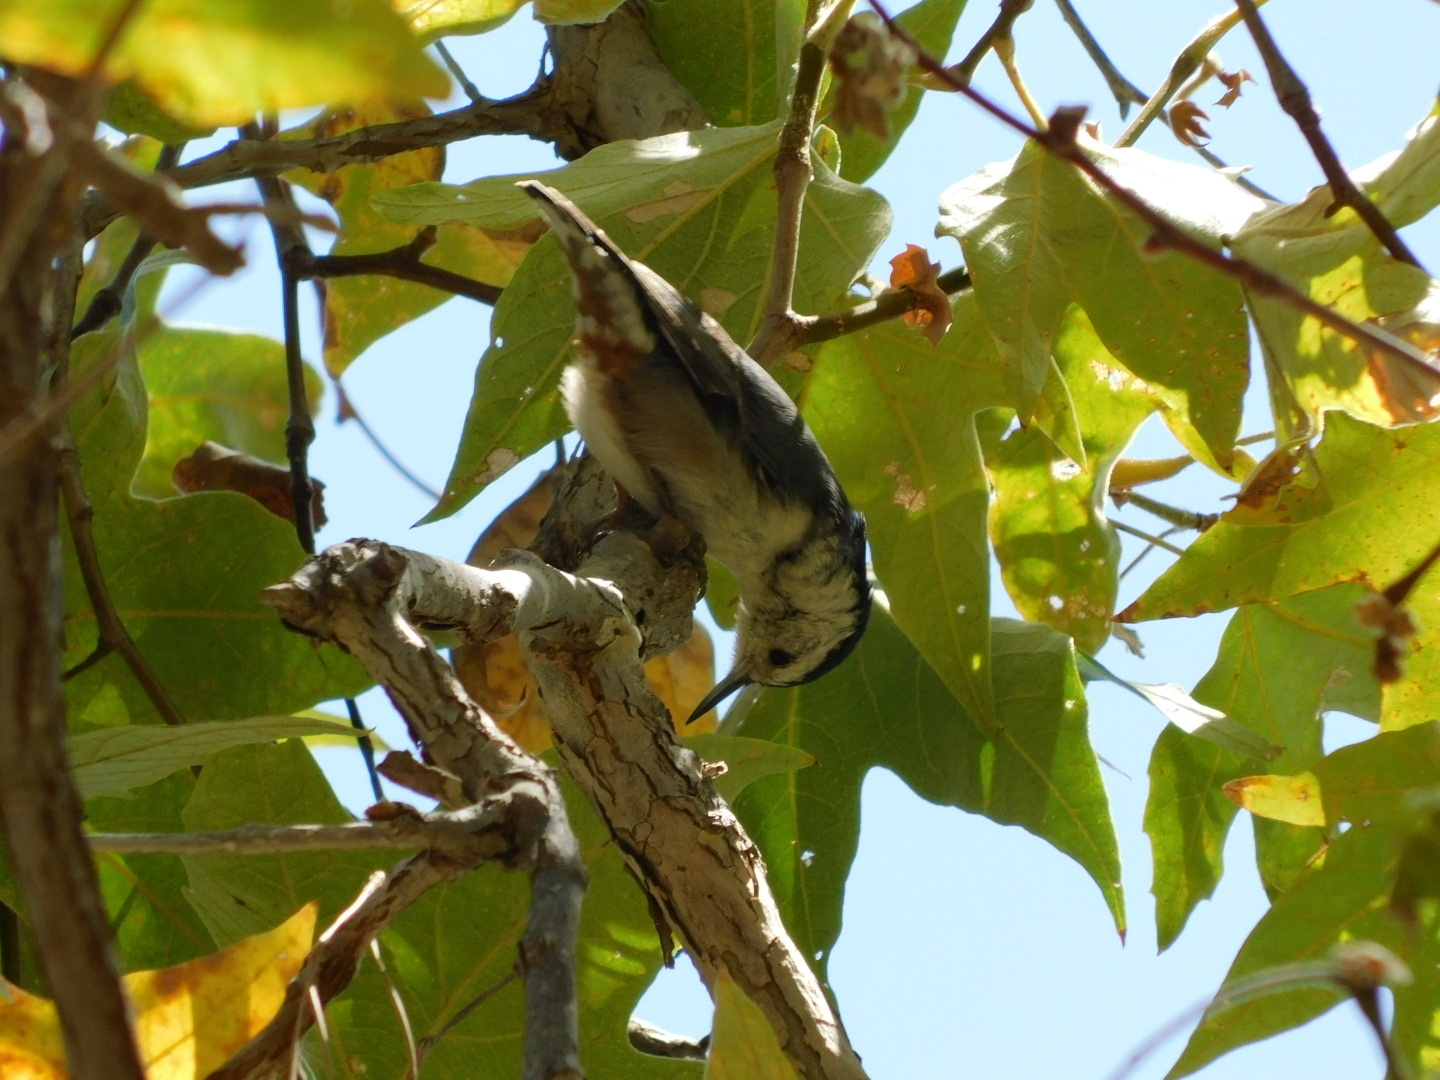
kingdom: Animalia
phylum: Chordata
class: Aves
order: Passeriformes
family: Sittidae
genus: Sitta
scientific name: Sitta carolinensis
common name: White-breasted nuthatch
